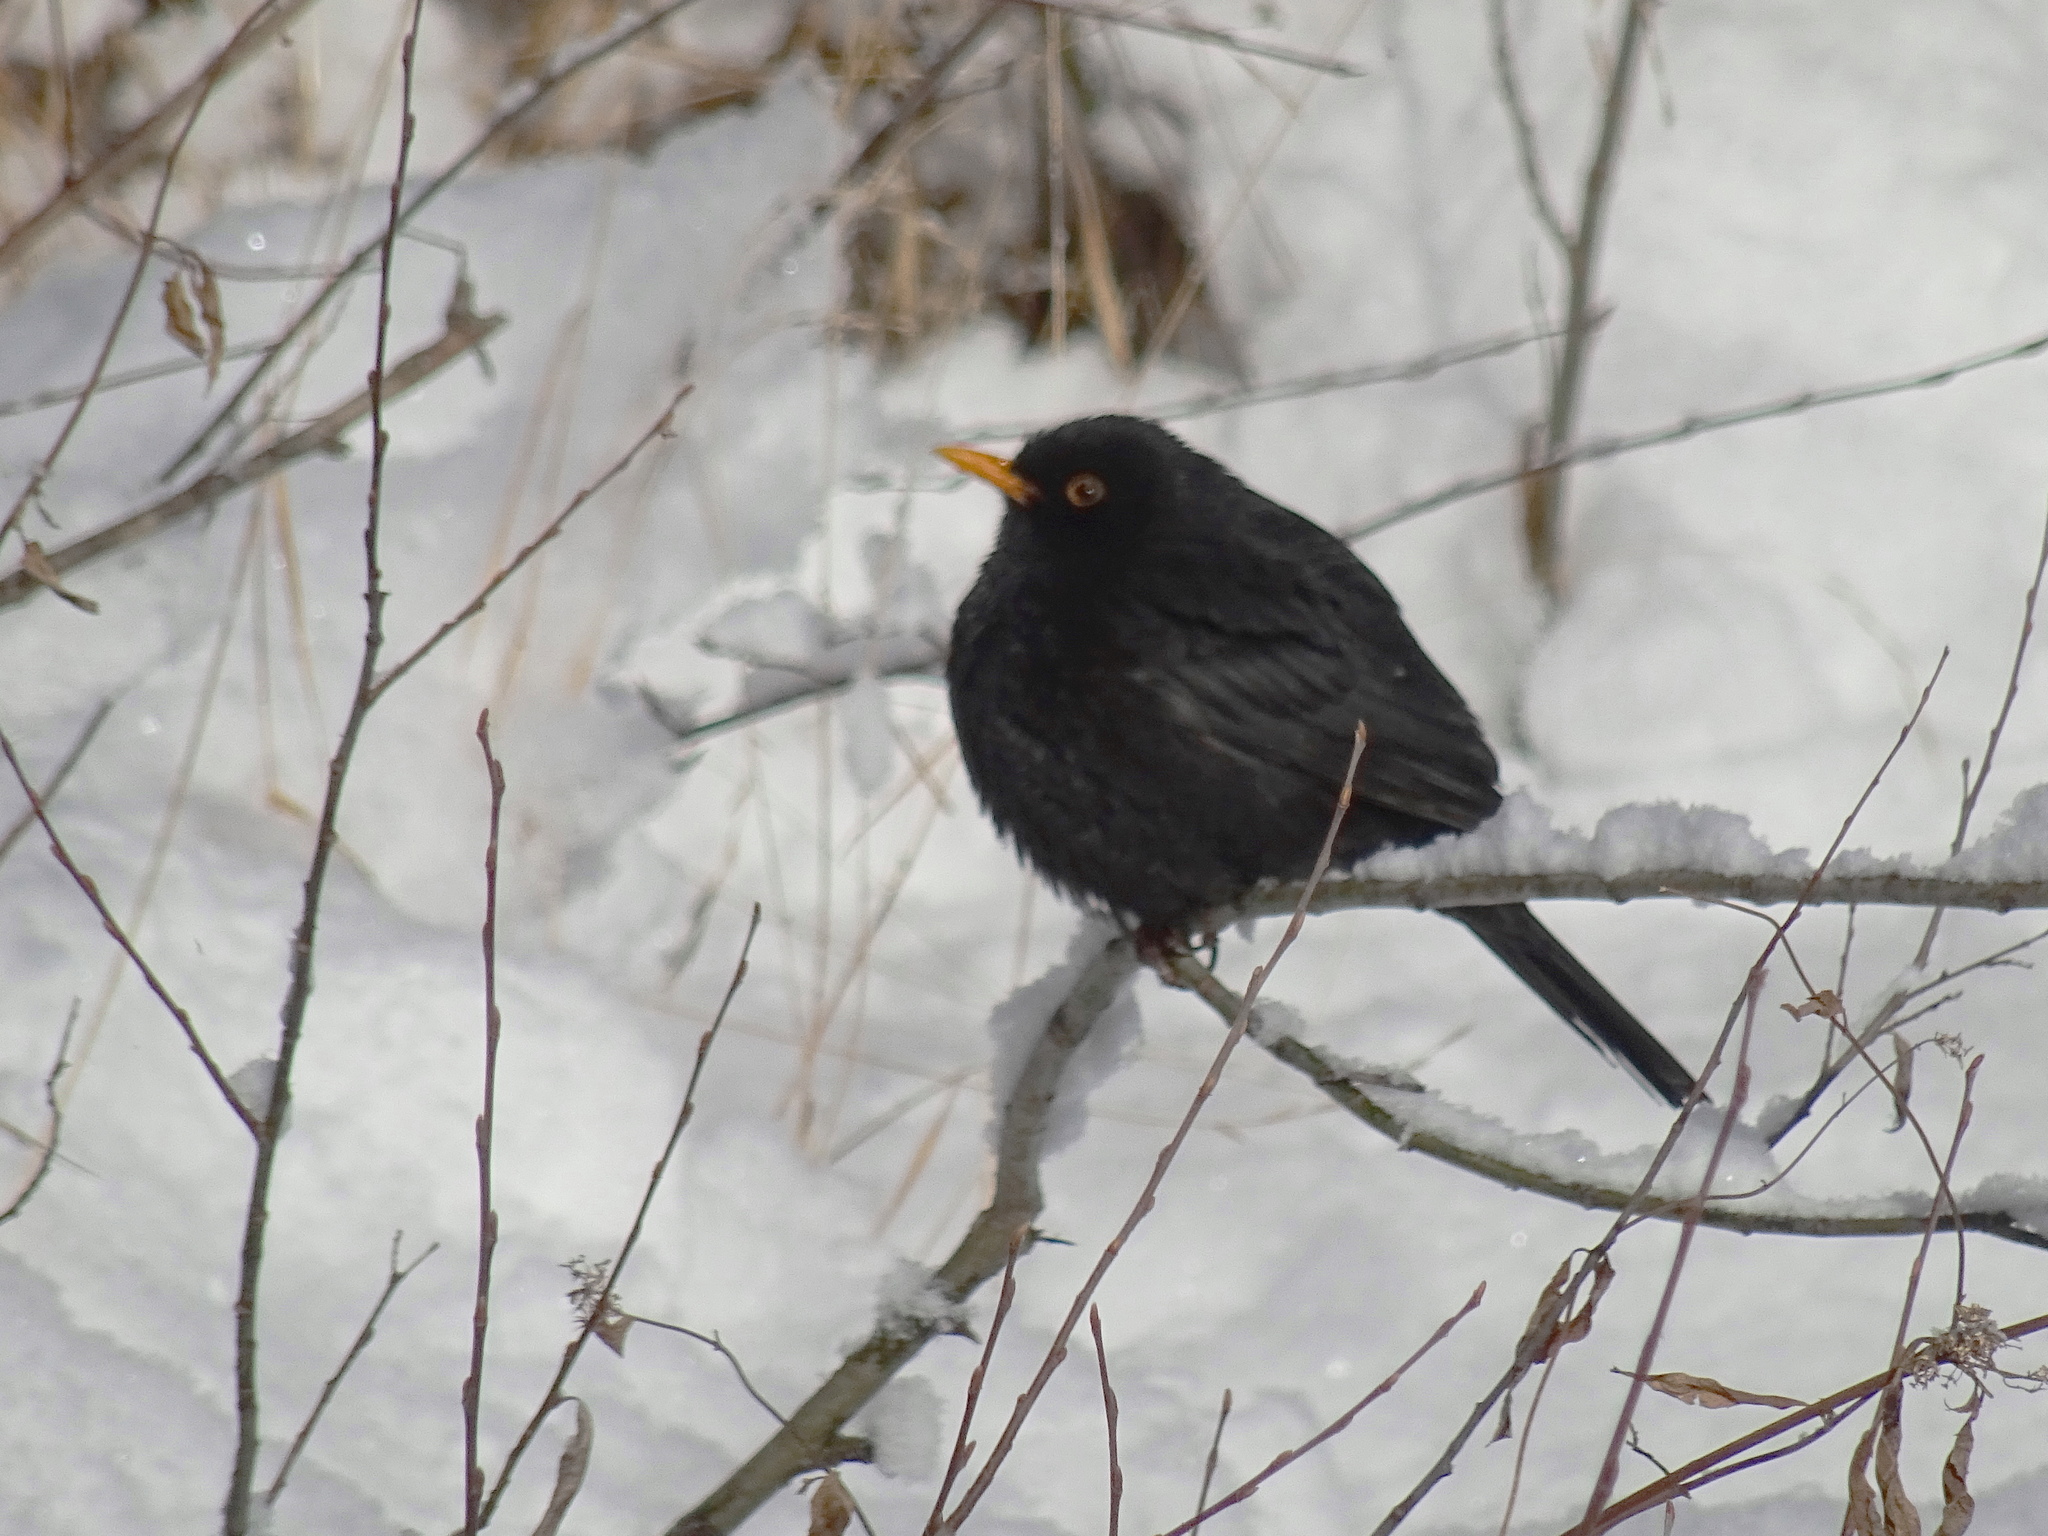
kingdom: Animalia
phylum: Chordata
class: Aves
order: Passeriformes
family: Turdidae
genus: Turdus
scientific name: Turdus merula
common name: Common blackbird
